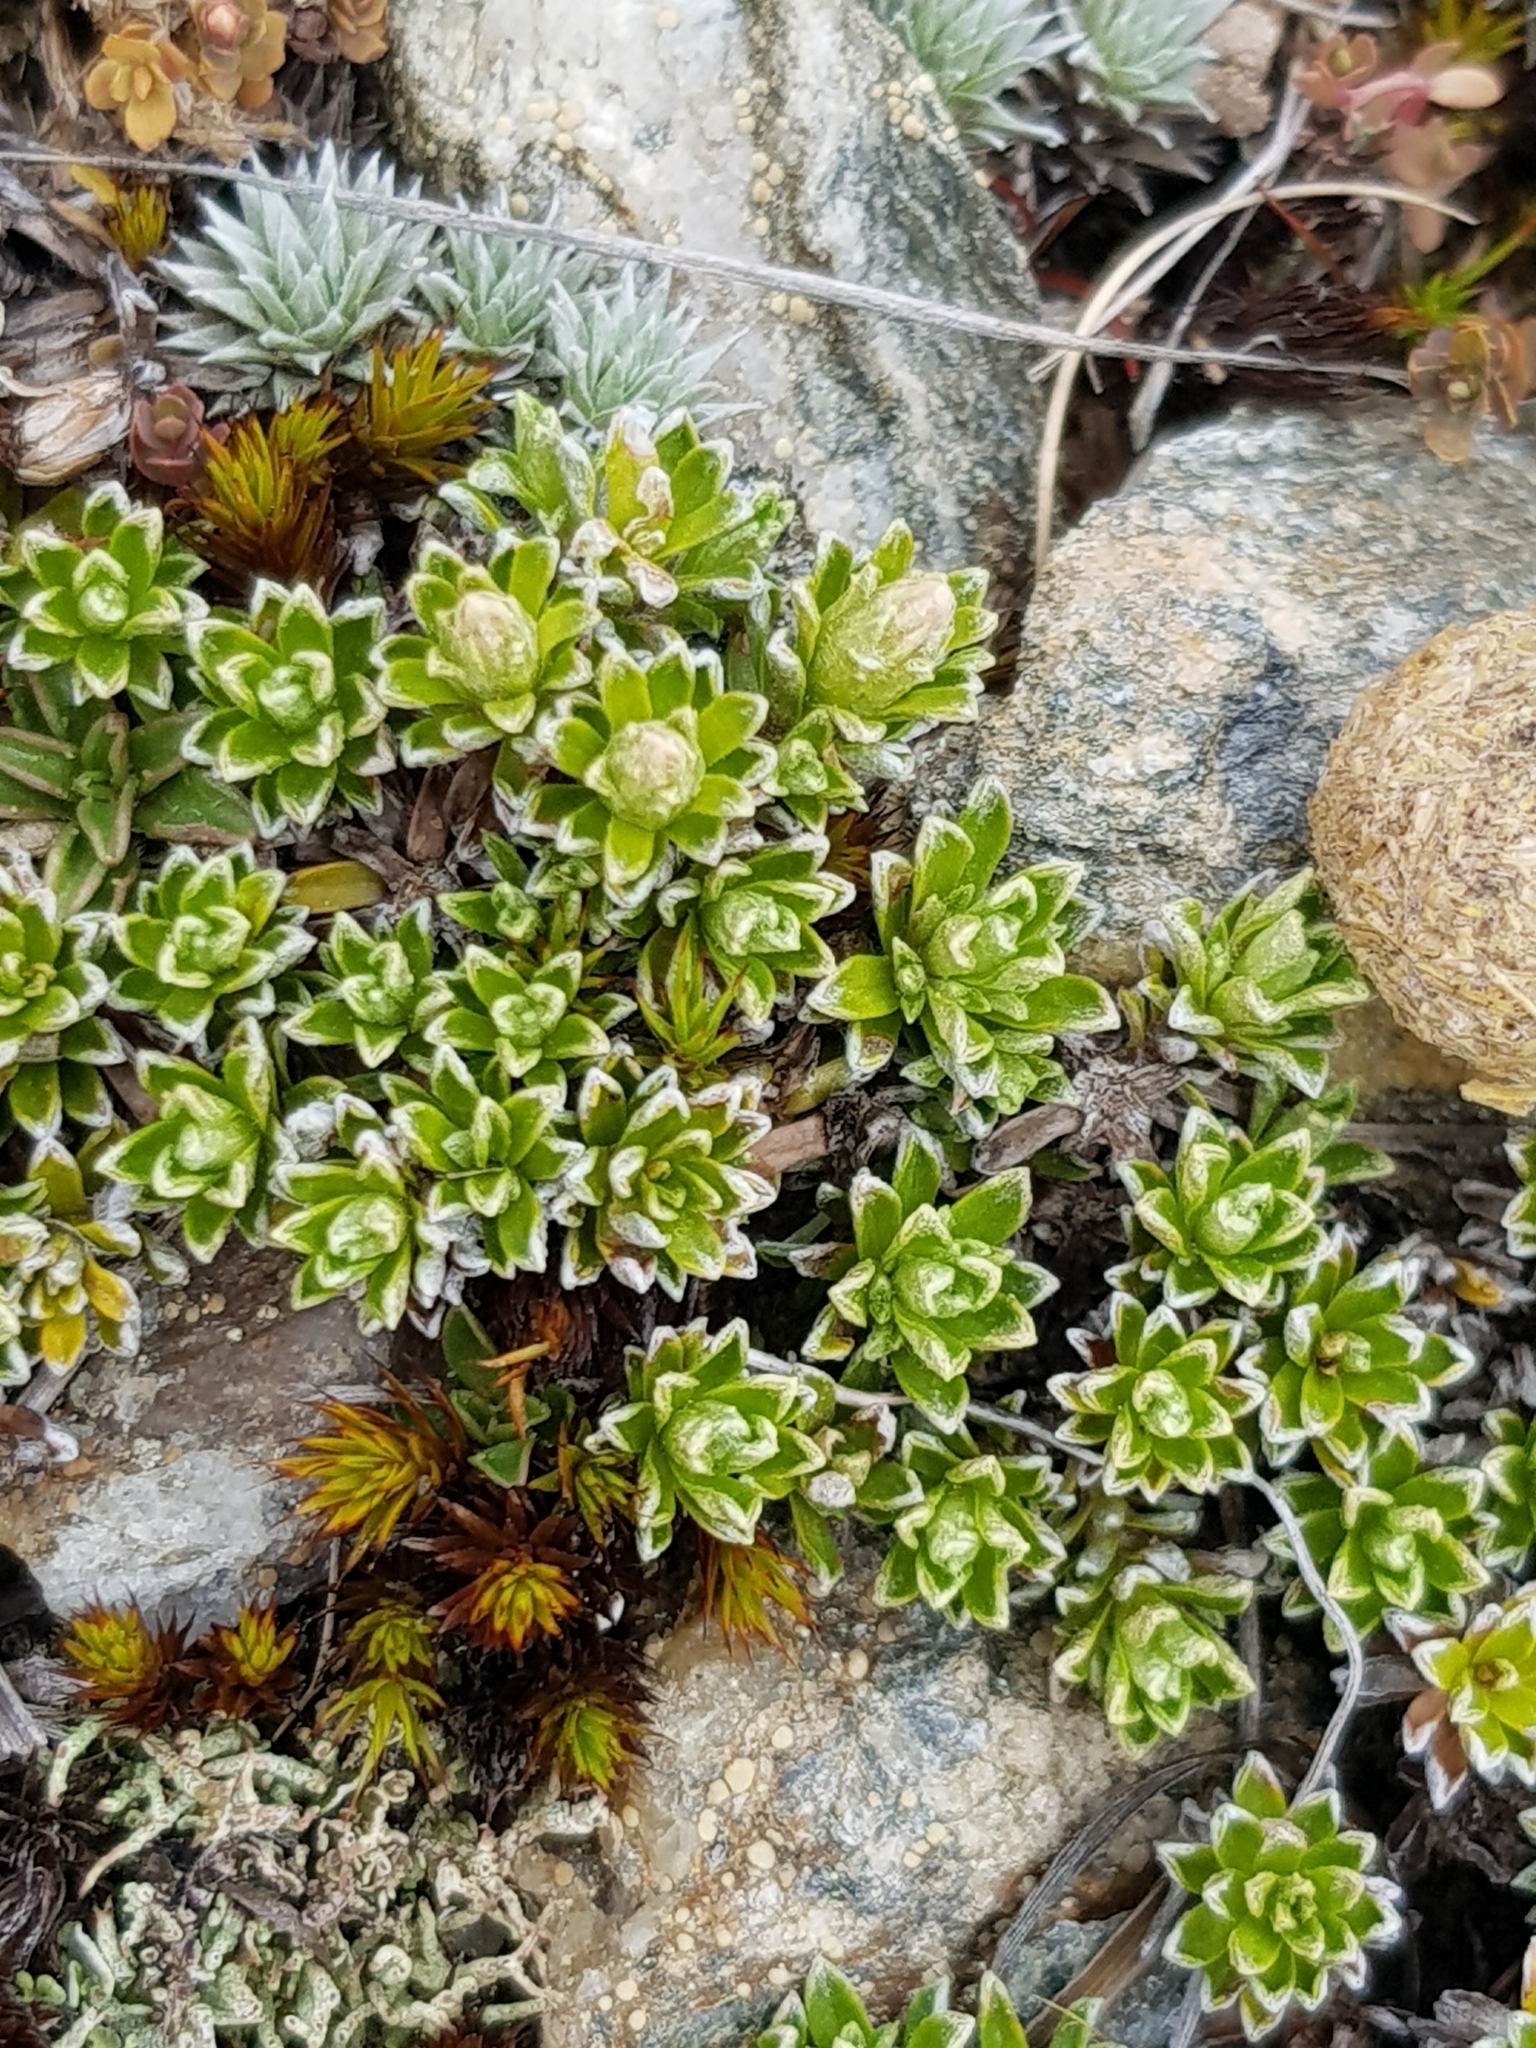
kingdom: Plantae
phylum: Tracheophyta
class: Magnoliopsida
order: Asterales
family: Asteraceae
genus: Raoulia
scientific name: Raoulia subsericea
